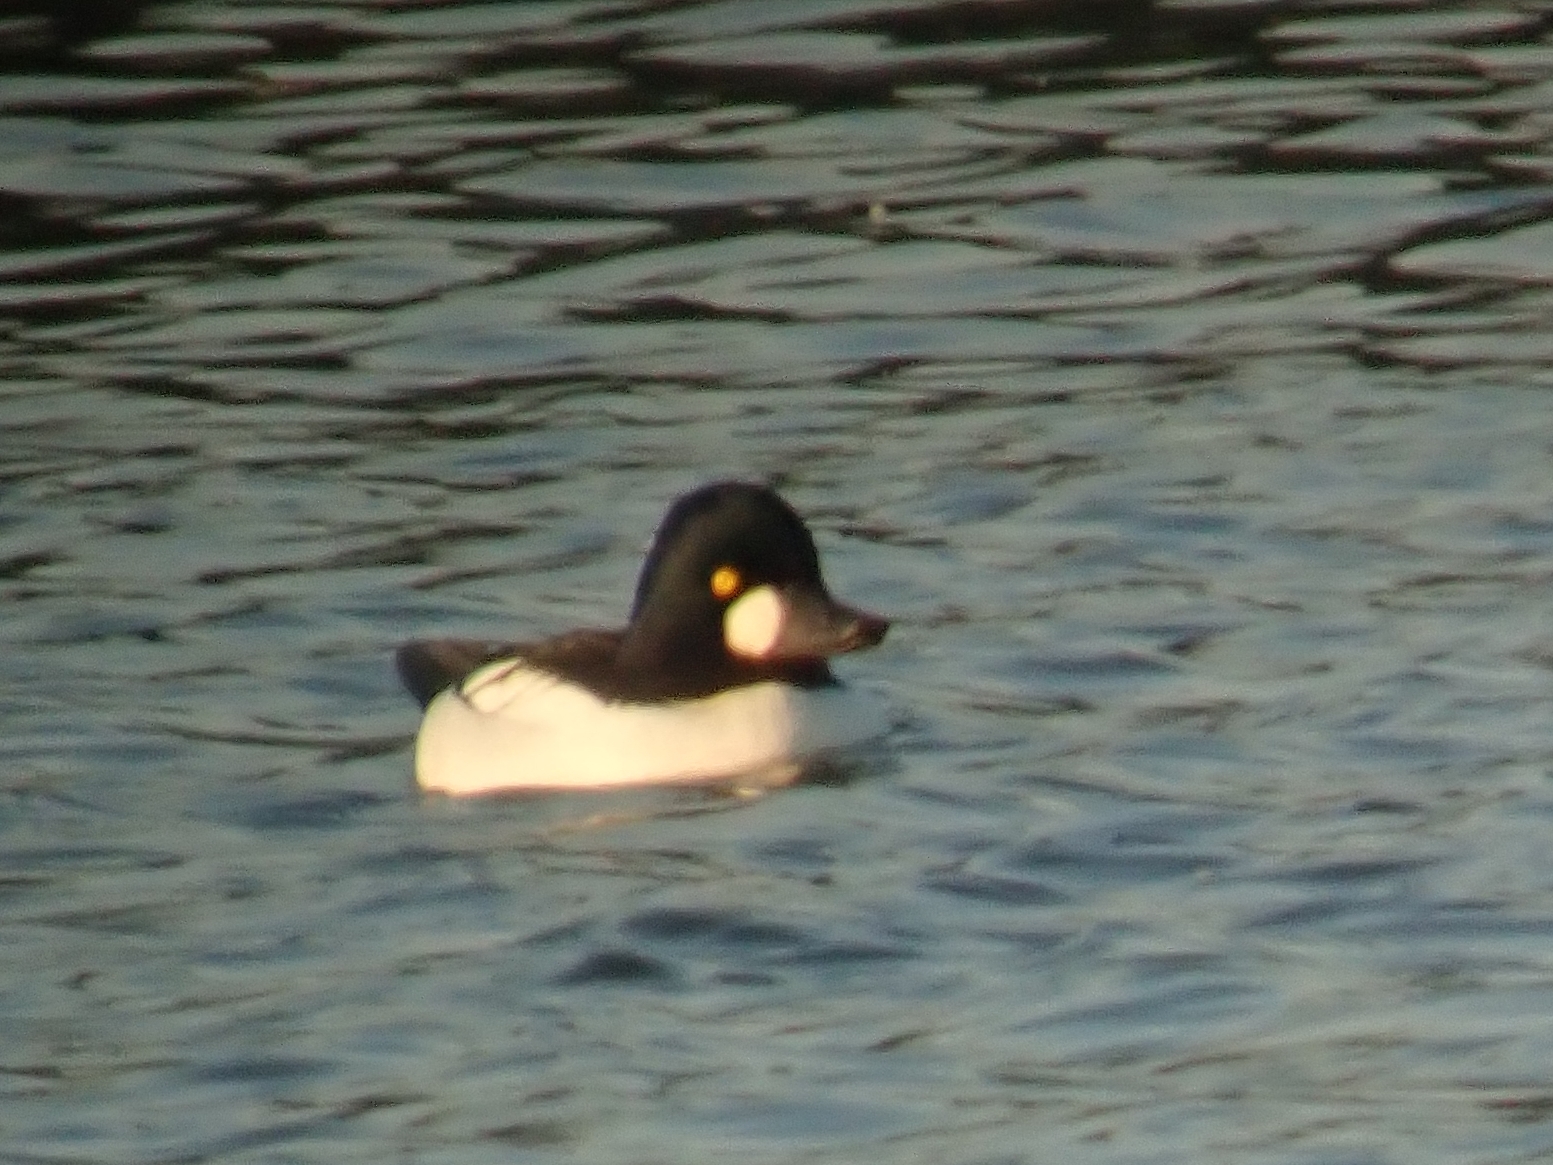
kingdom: Animalia
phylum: Chordata
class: Aves
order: Anseriformes
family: Anatidae
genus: Bucephala
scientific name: Bucephala clangula
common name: Common goldeneye
